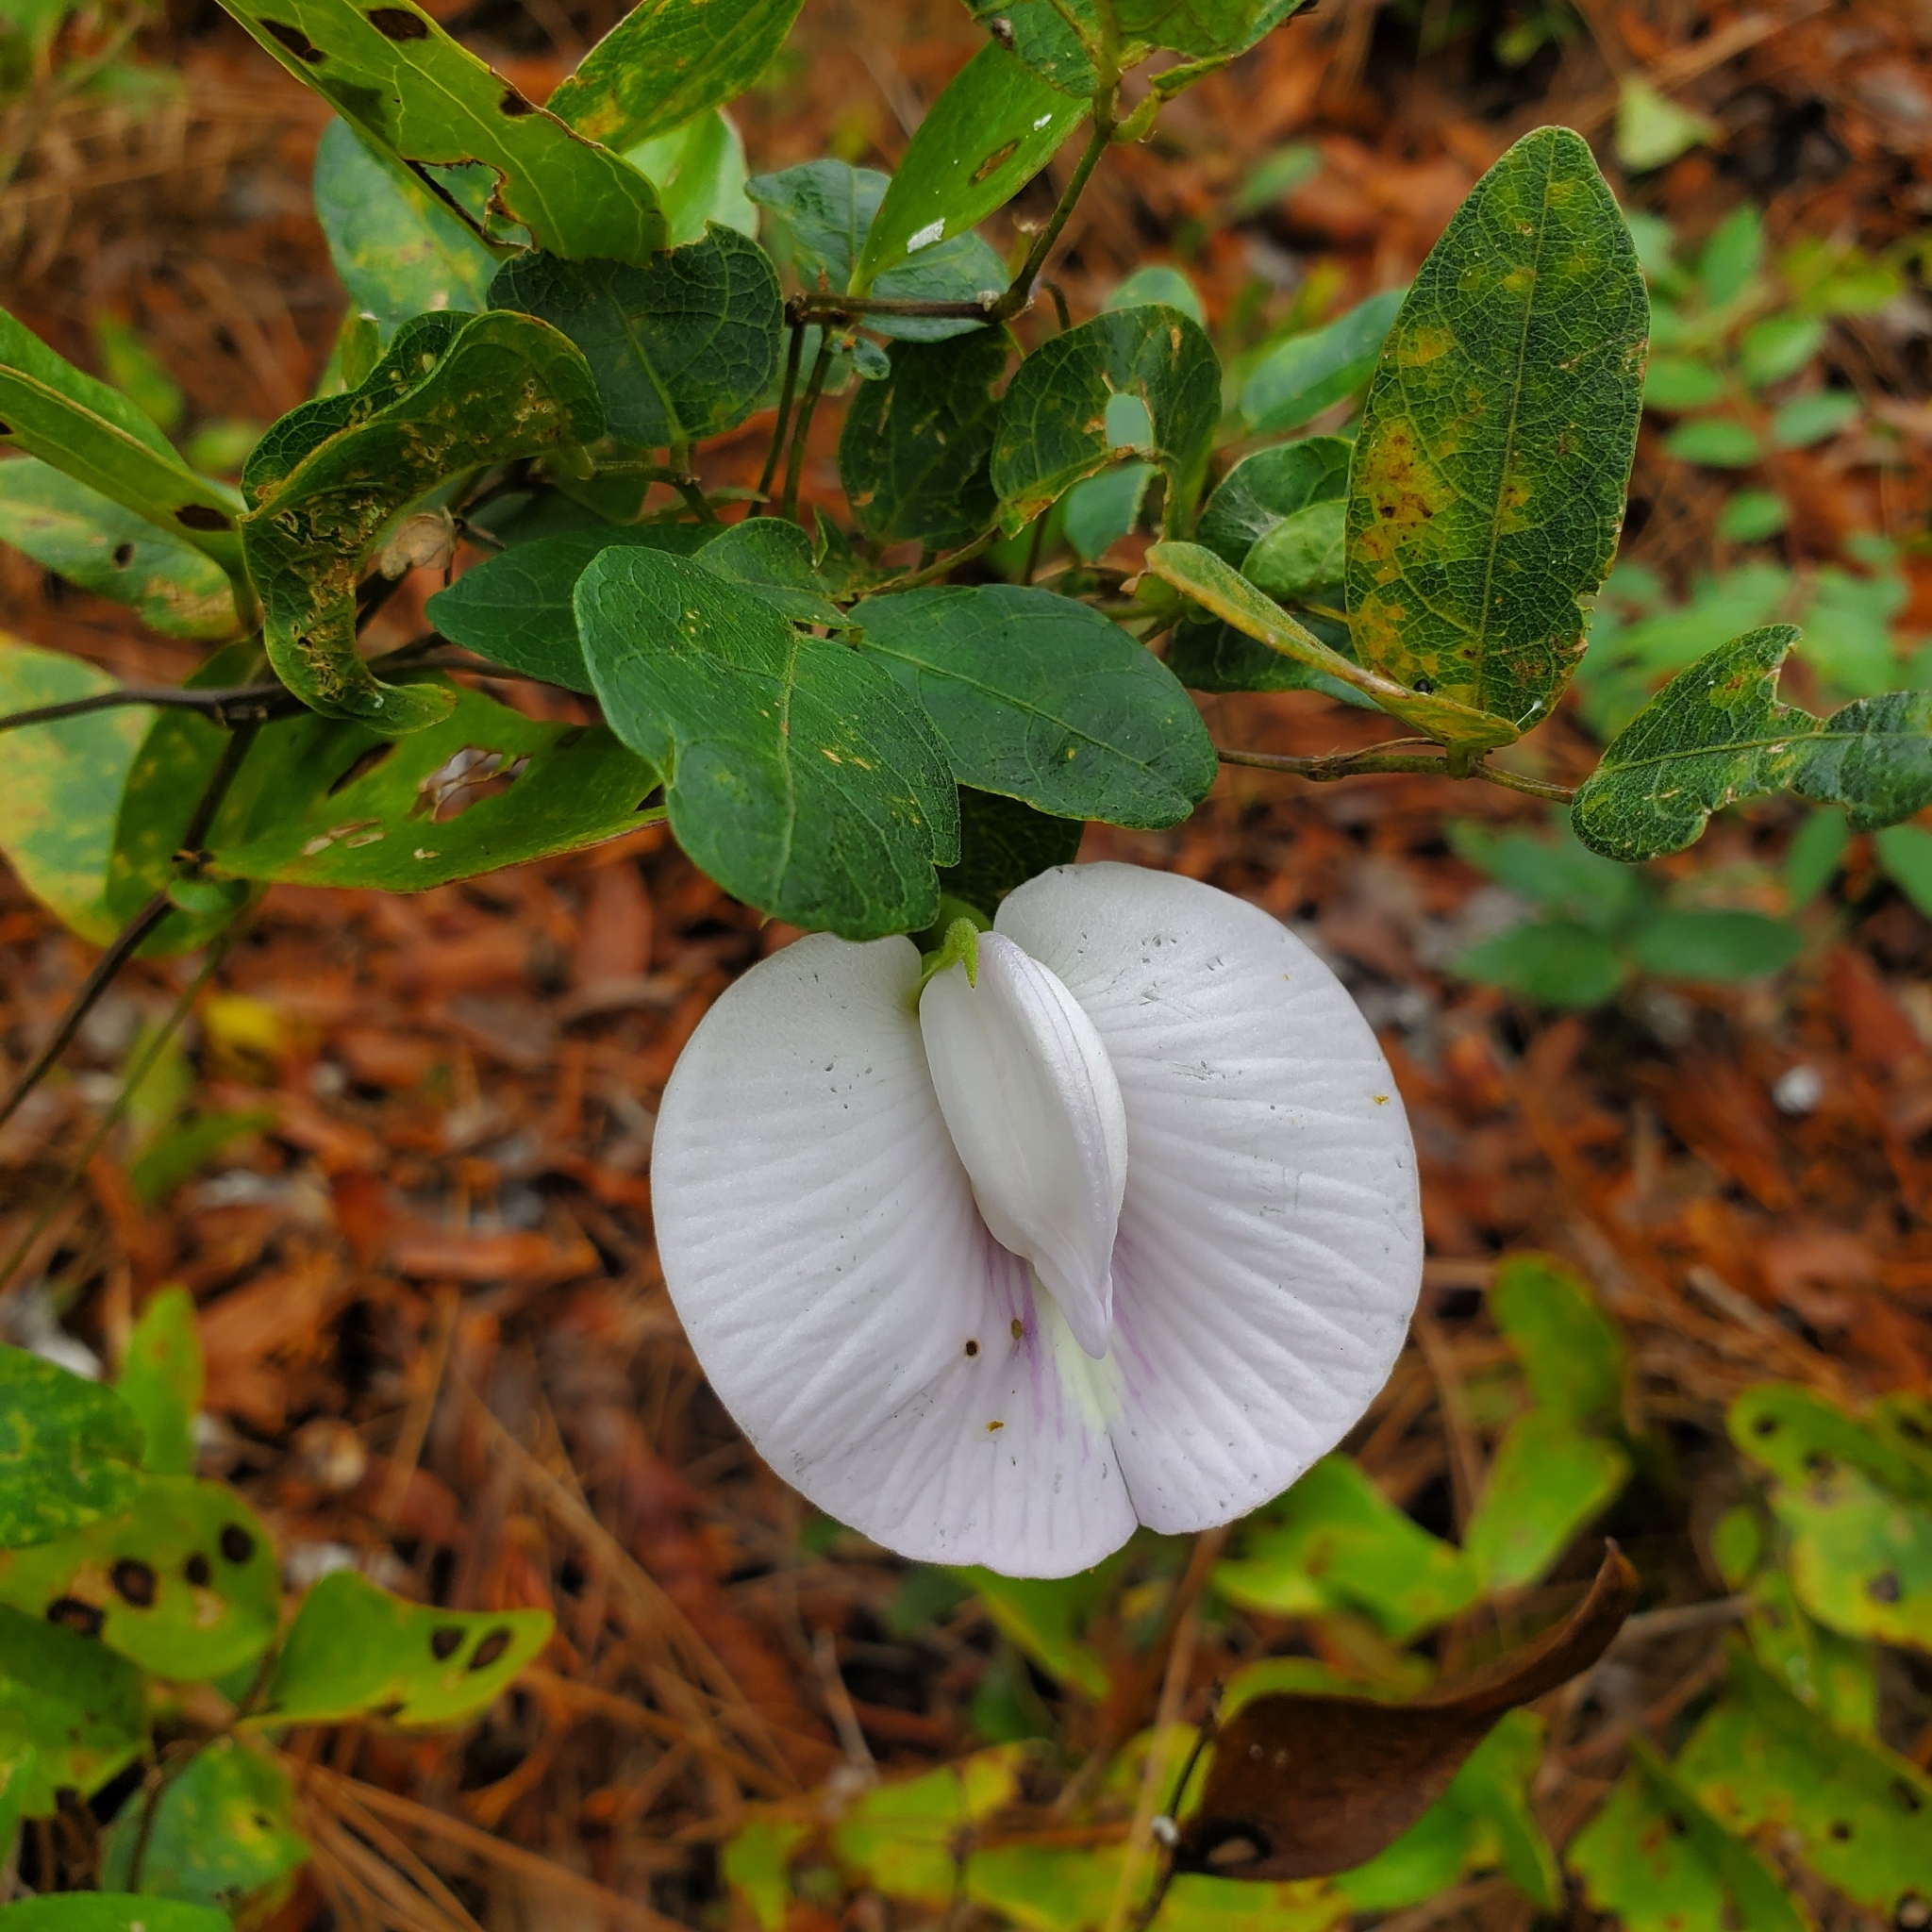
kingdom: Plantae
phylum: Tracheophyta
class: Magnoliopsida
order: Fabales
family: Fabaceae
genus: Centrosema
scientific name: Centrosema arenicola
